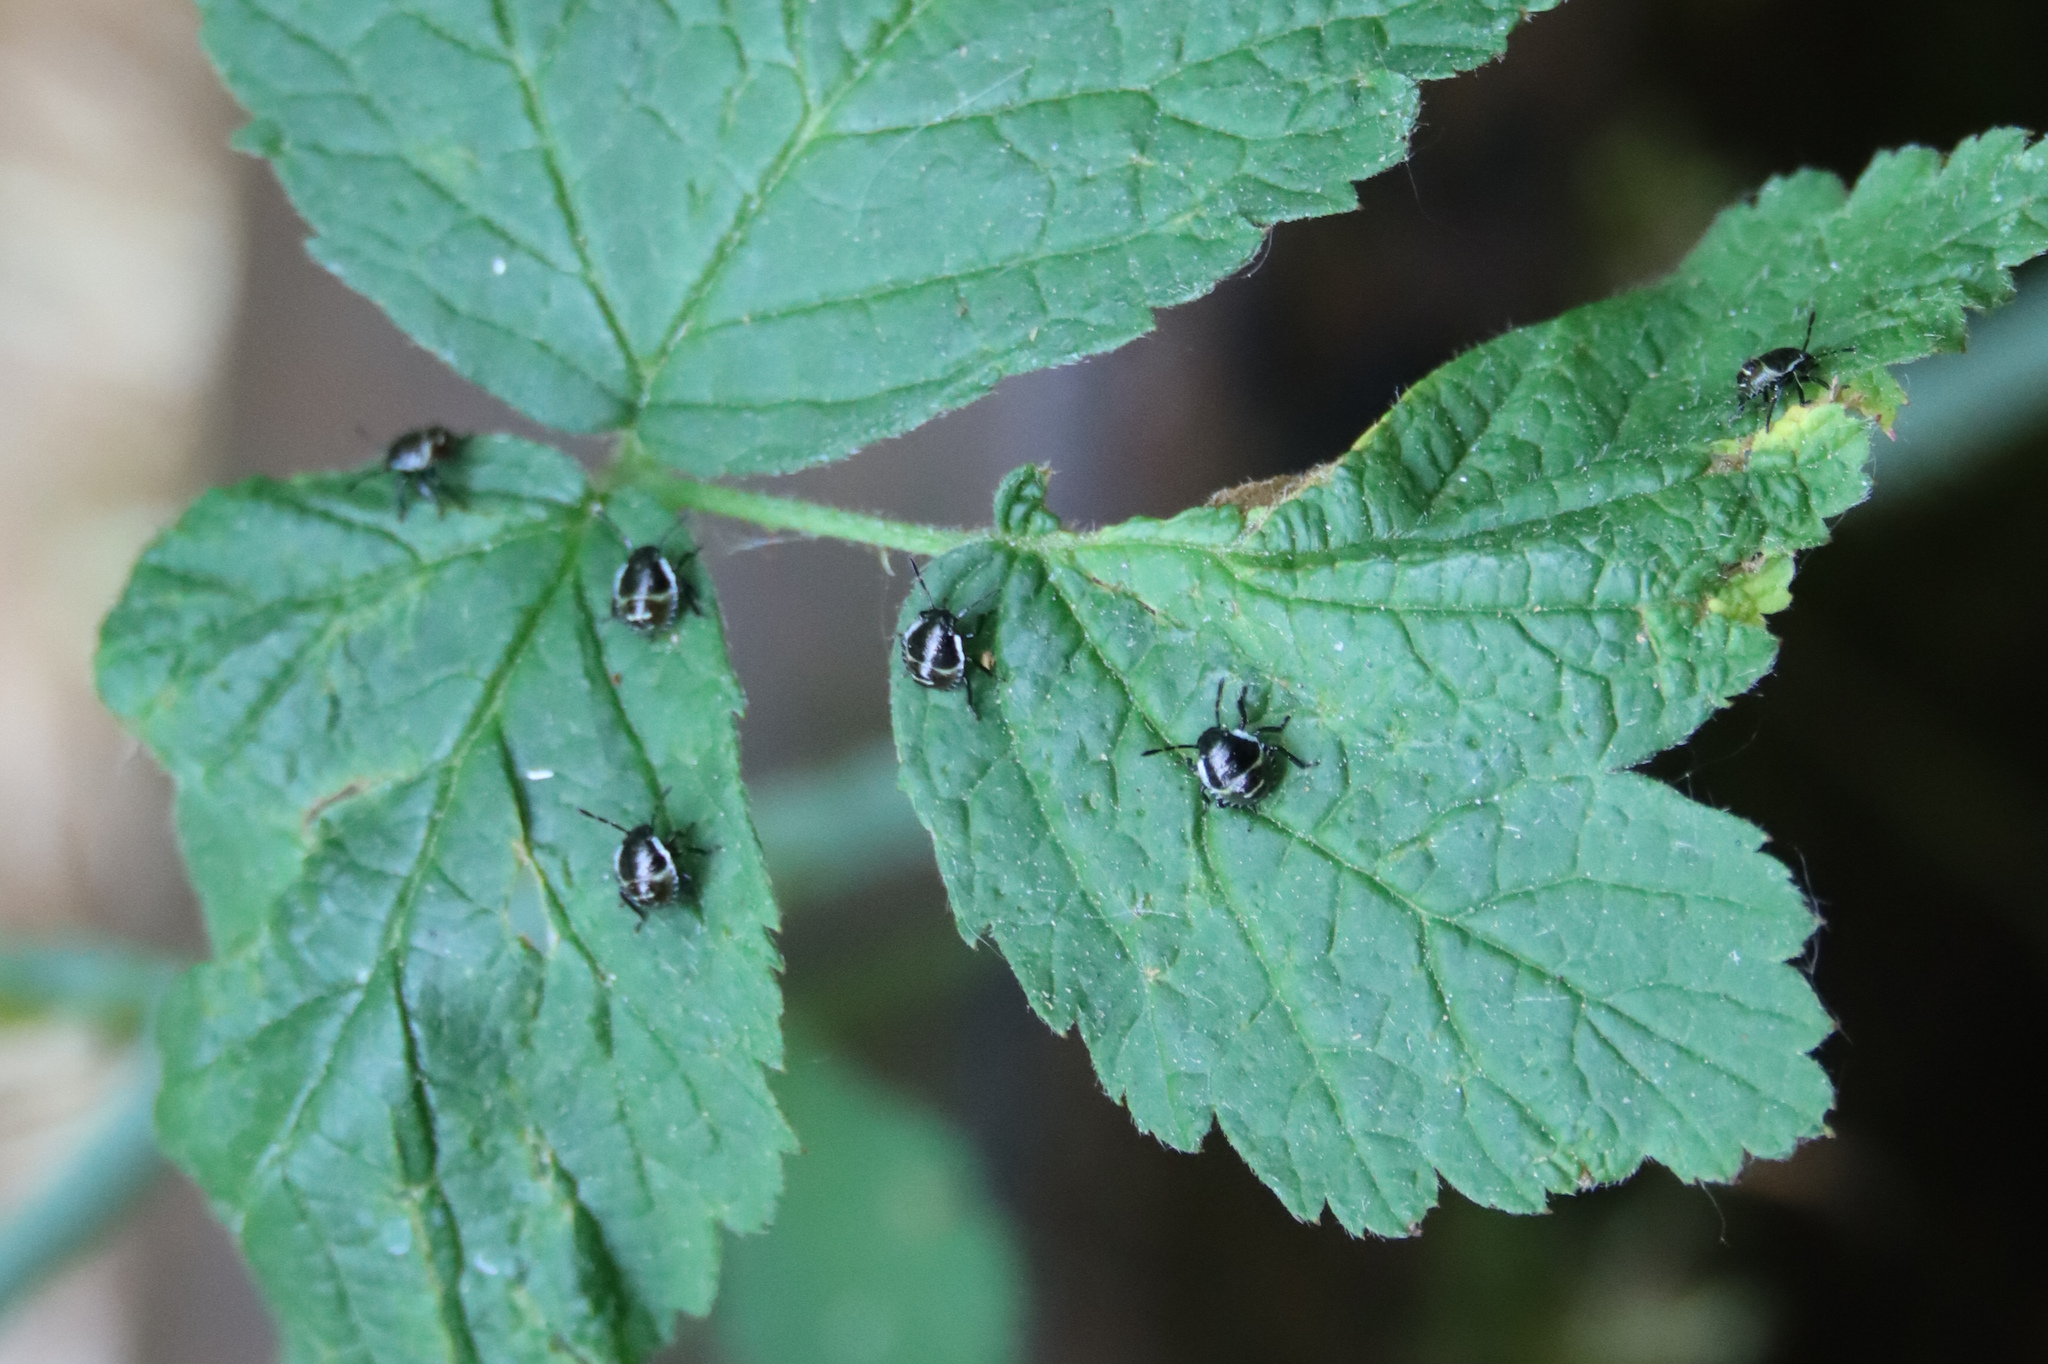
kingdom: Animalia
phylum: Arthropoda
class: Insecta
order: Hemiptera
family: Pentatomidae
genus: Palomena
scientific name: Palomena prasina
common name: Green shieldbug
